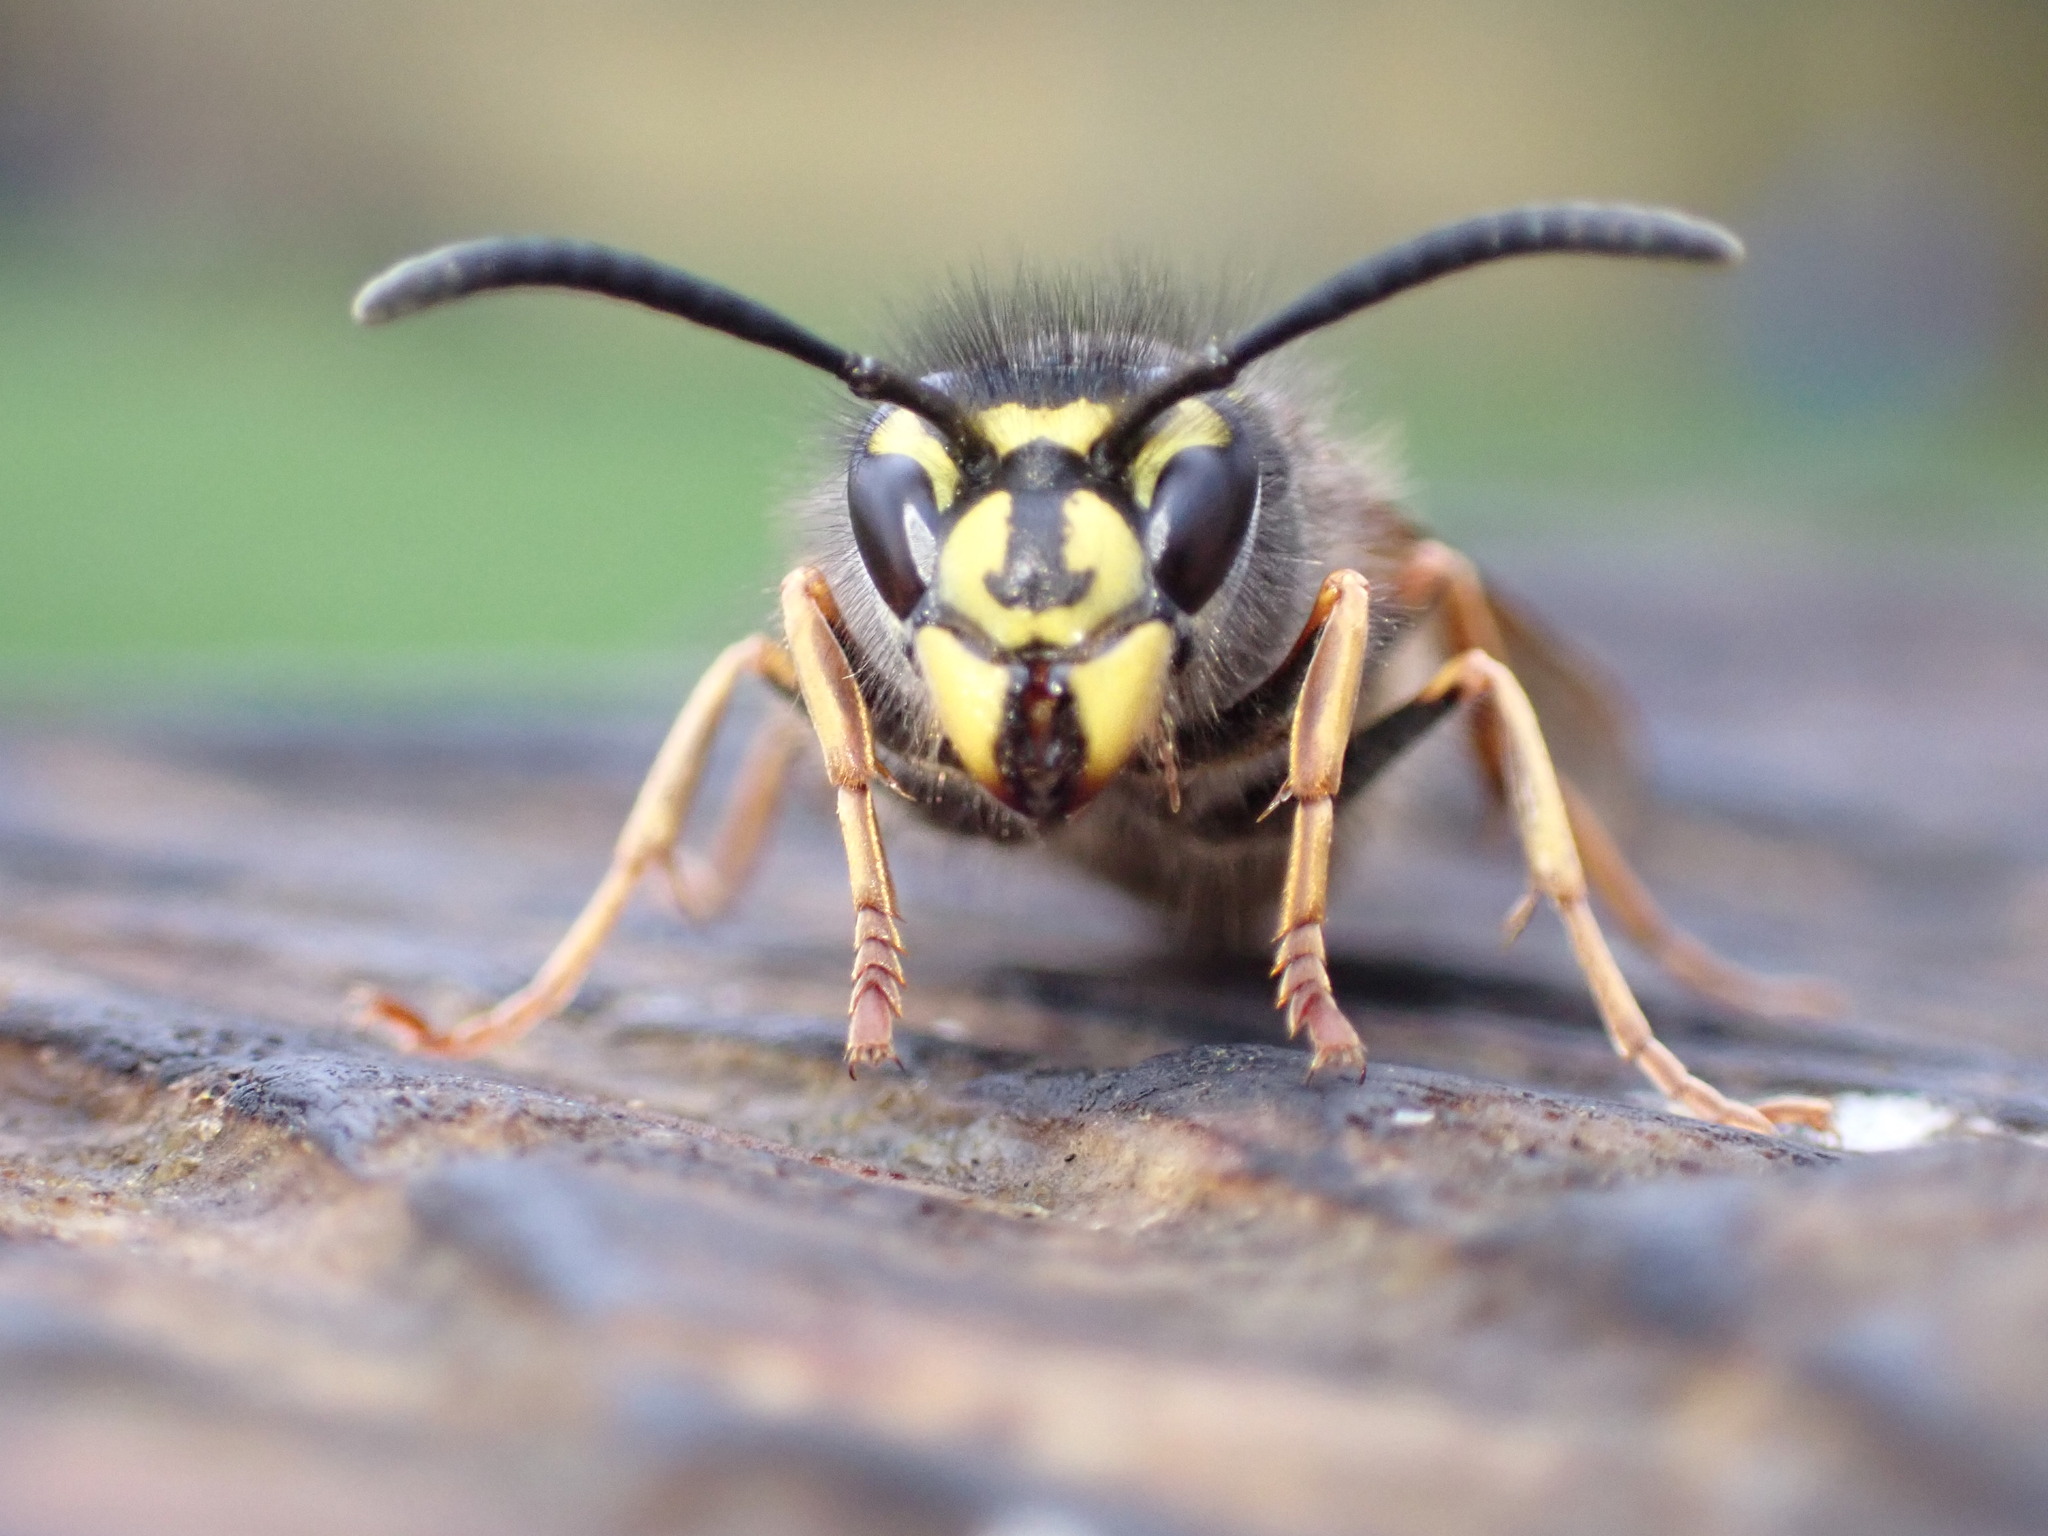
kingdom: Animalia
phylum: Arthropoda
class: Insecta
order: Hymenoptera
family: Vespidae
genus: Vespula
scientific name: Vespula vulgaris
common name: Common wasp
